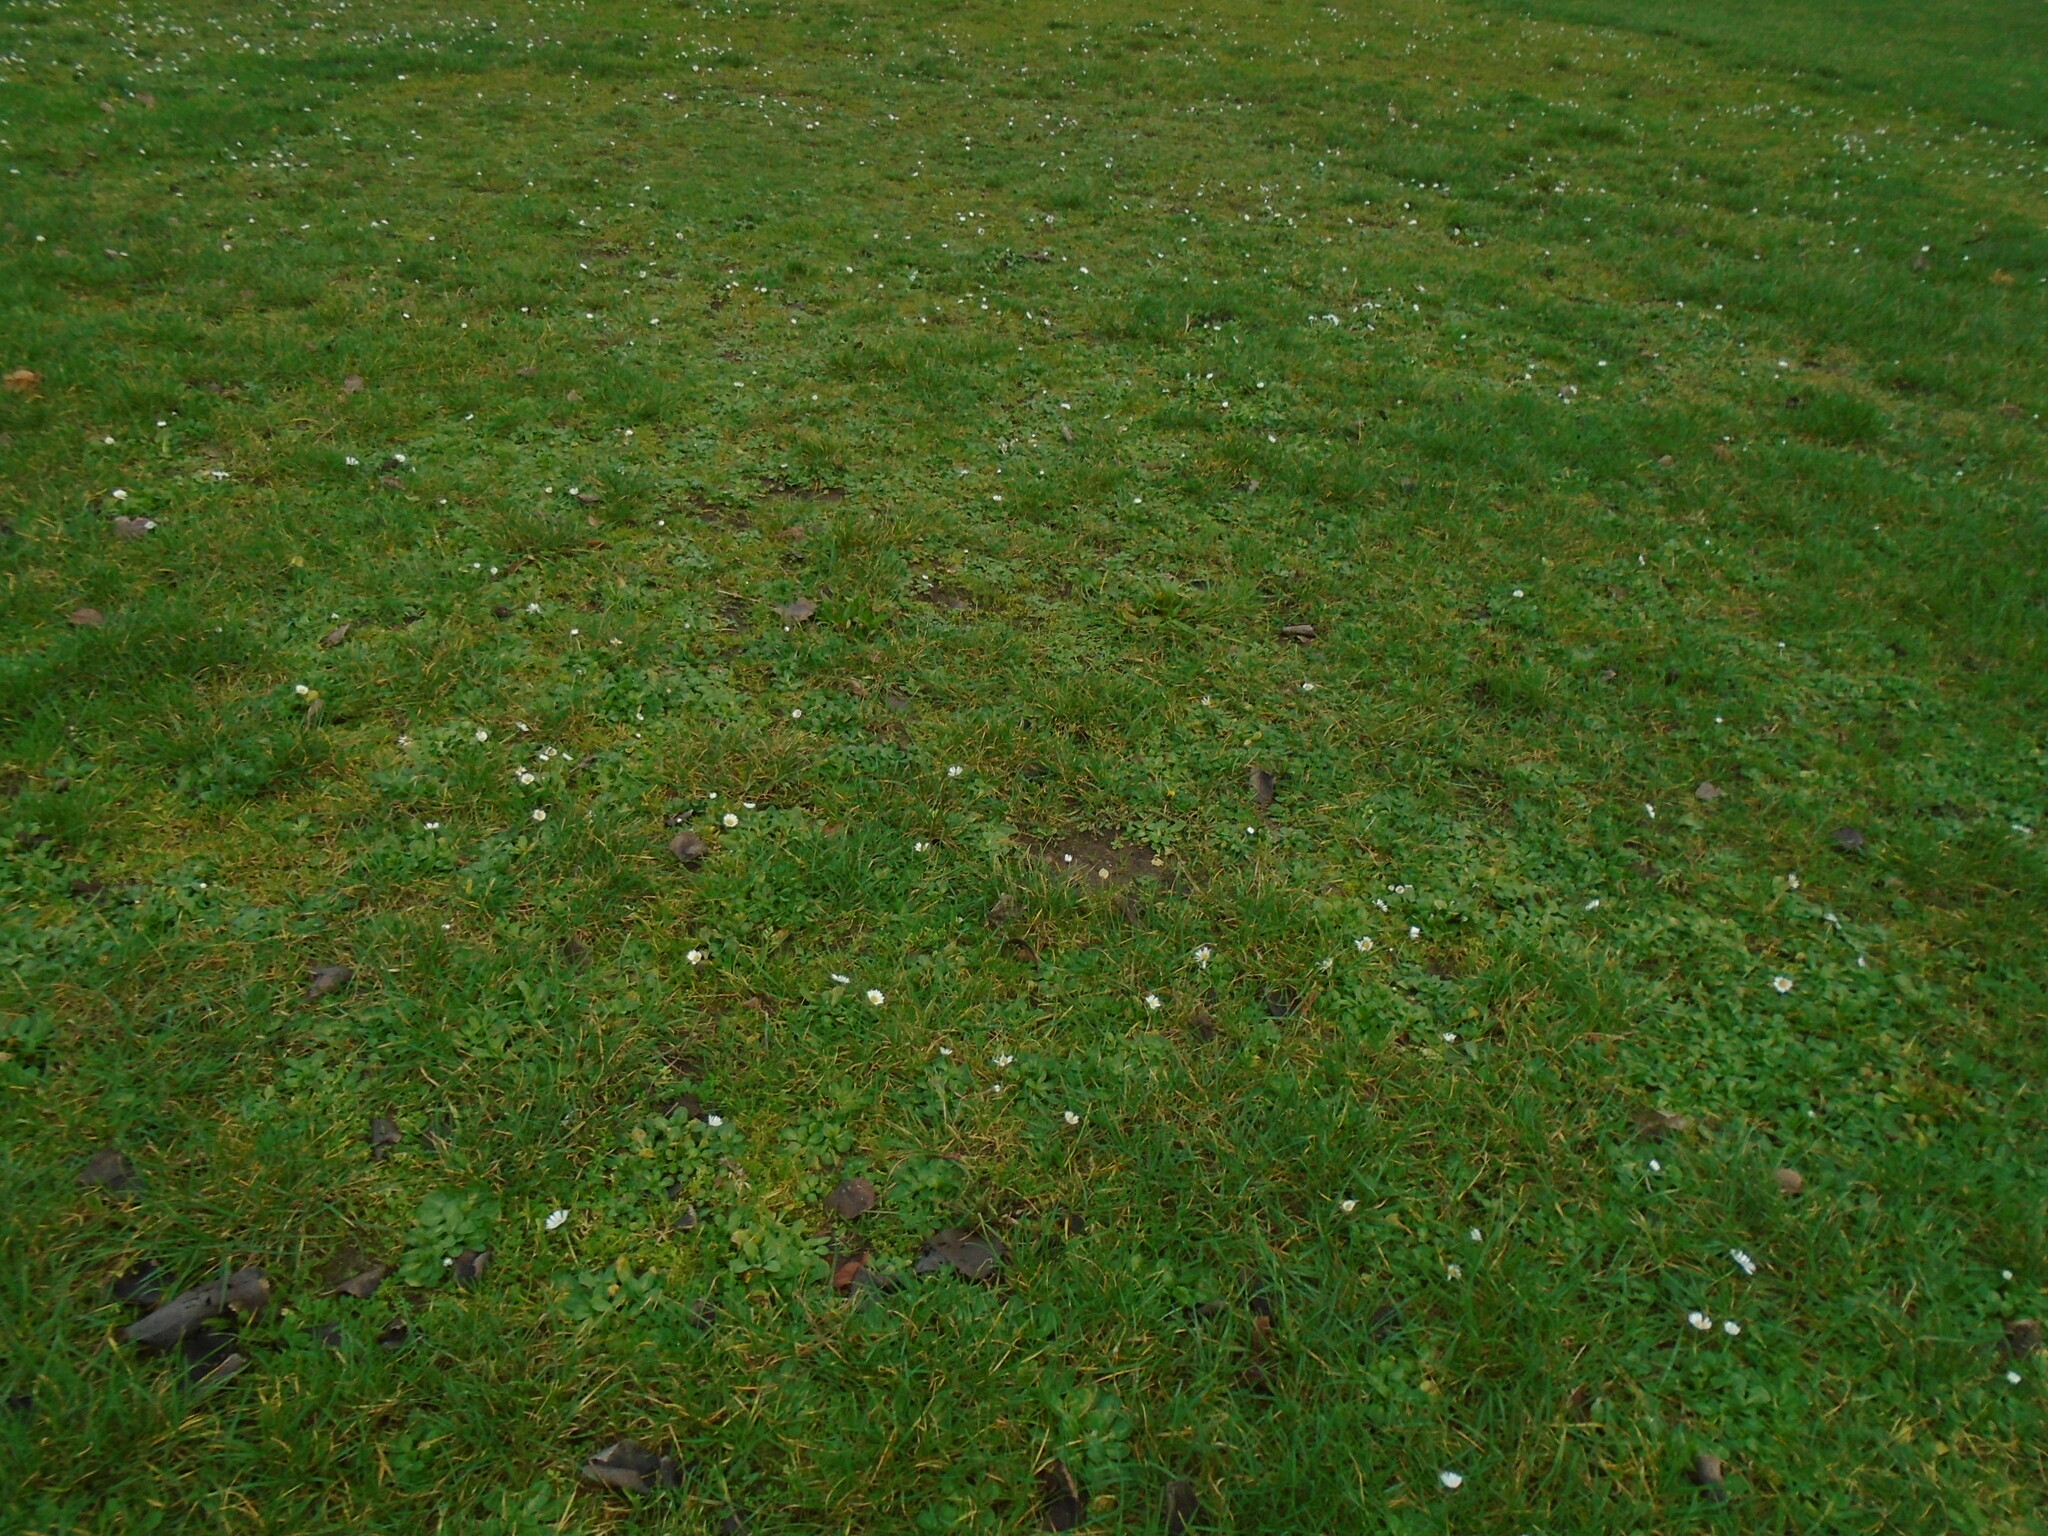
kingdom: Plantae
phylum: Tracheophyta
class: Magnoliopsida
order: Asterales
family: Asteraceae
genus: Bellis
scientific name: Bellis perennis
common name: Lawndaisy
